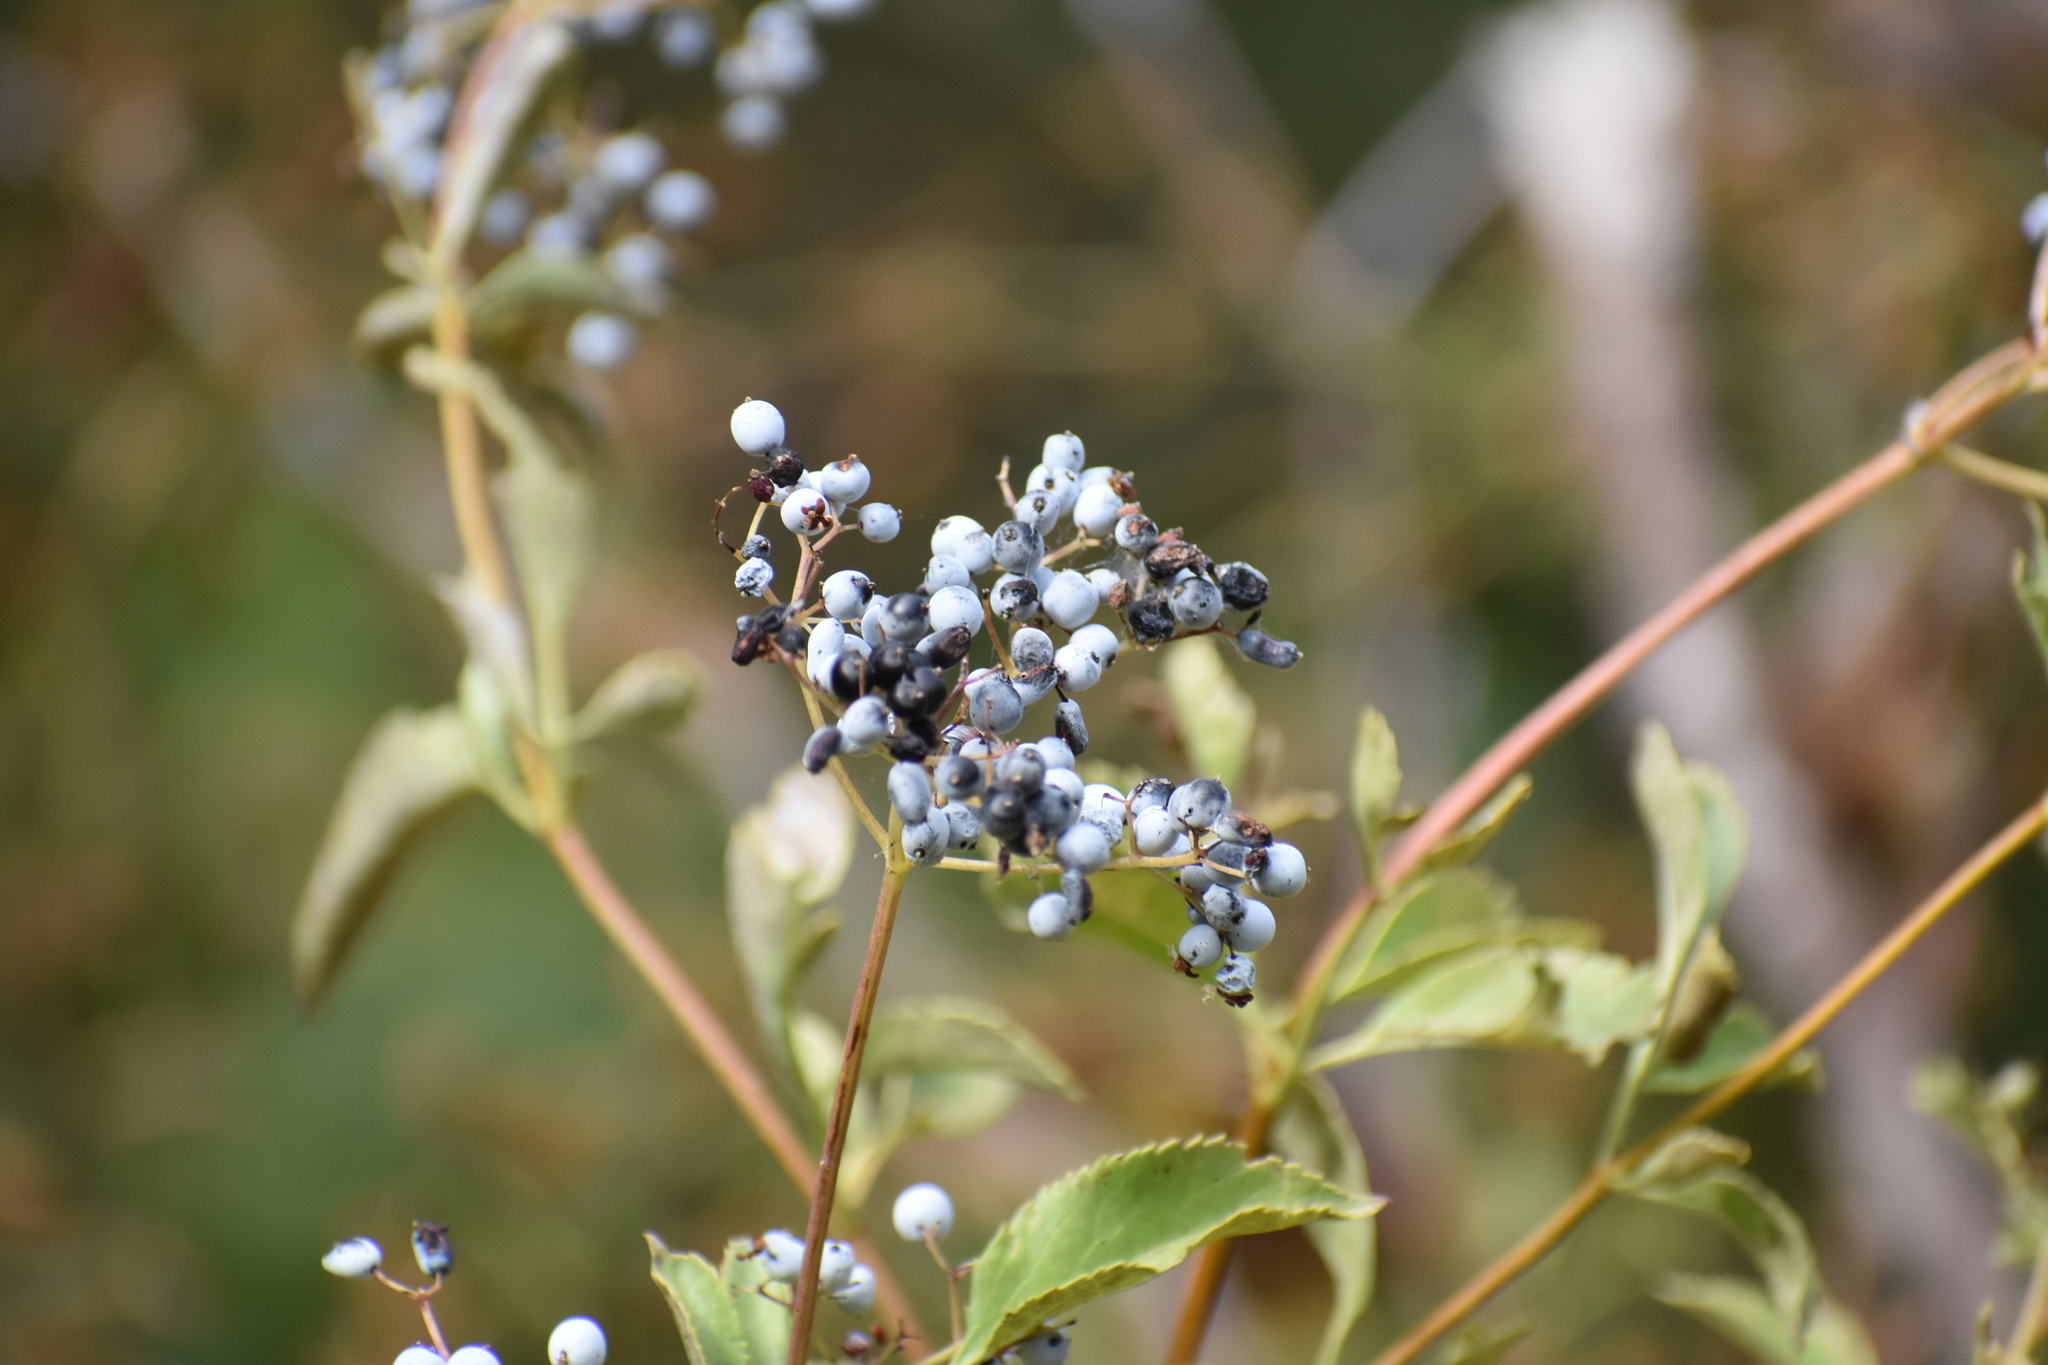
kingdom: Plantae
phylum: Tracheophyta
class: Magnoliopsida
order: Dipsacales
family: Viburnaceae
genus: Sambucus
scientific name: Sambucus cerulea
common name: Blue elder
